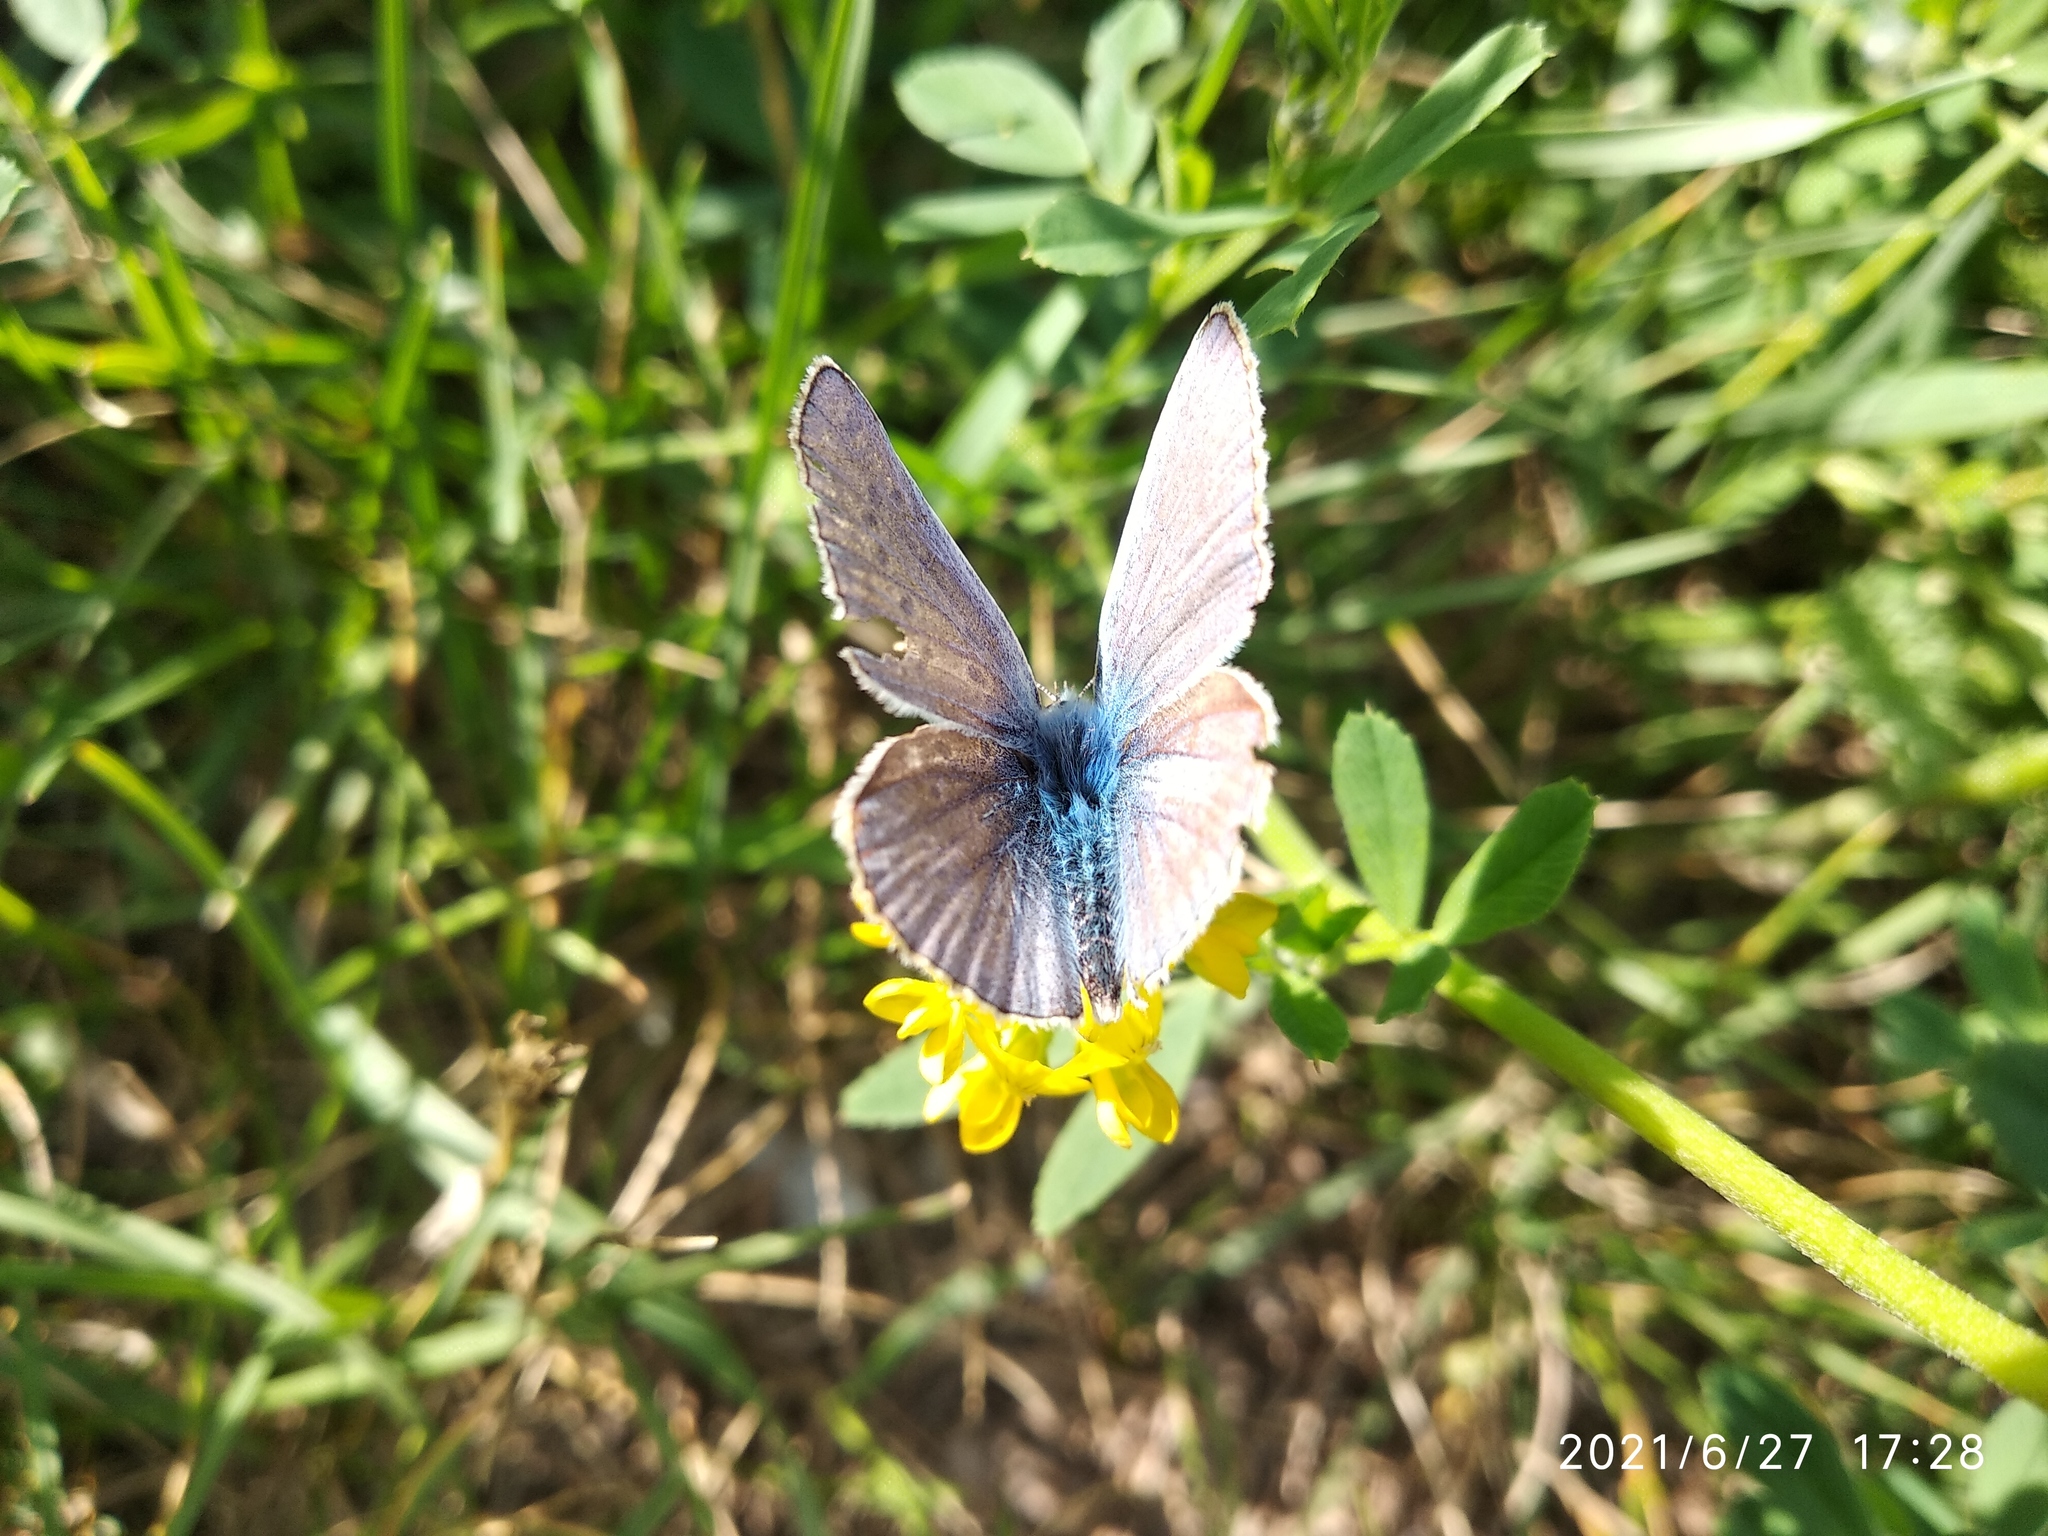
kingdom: Animalia
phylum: Arthropoda
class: Insecta
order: Lepidoptera
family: Lycaenidae
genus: Polyommatus
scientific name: Polyommatus icarus
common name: Common blue
